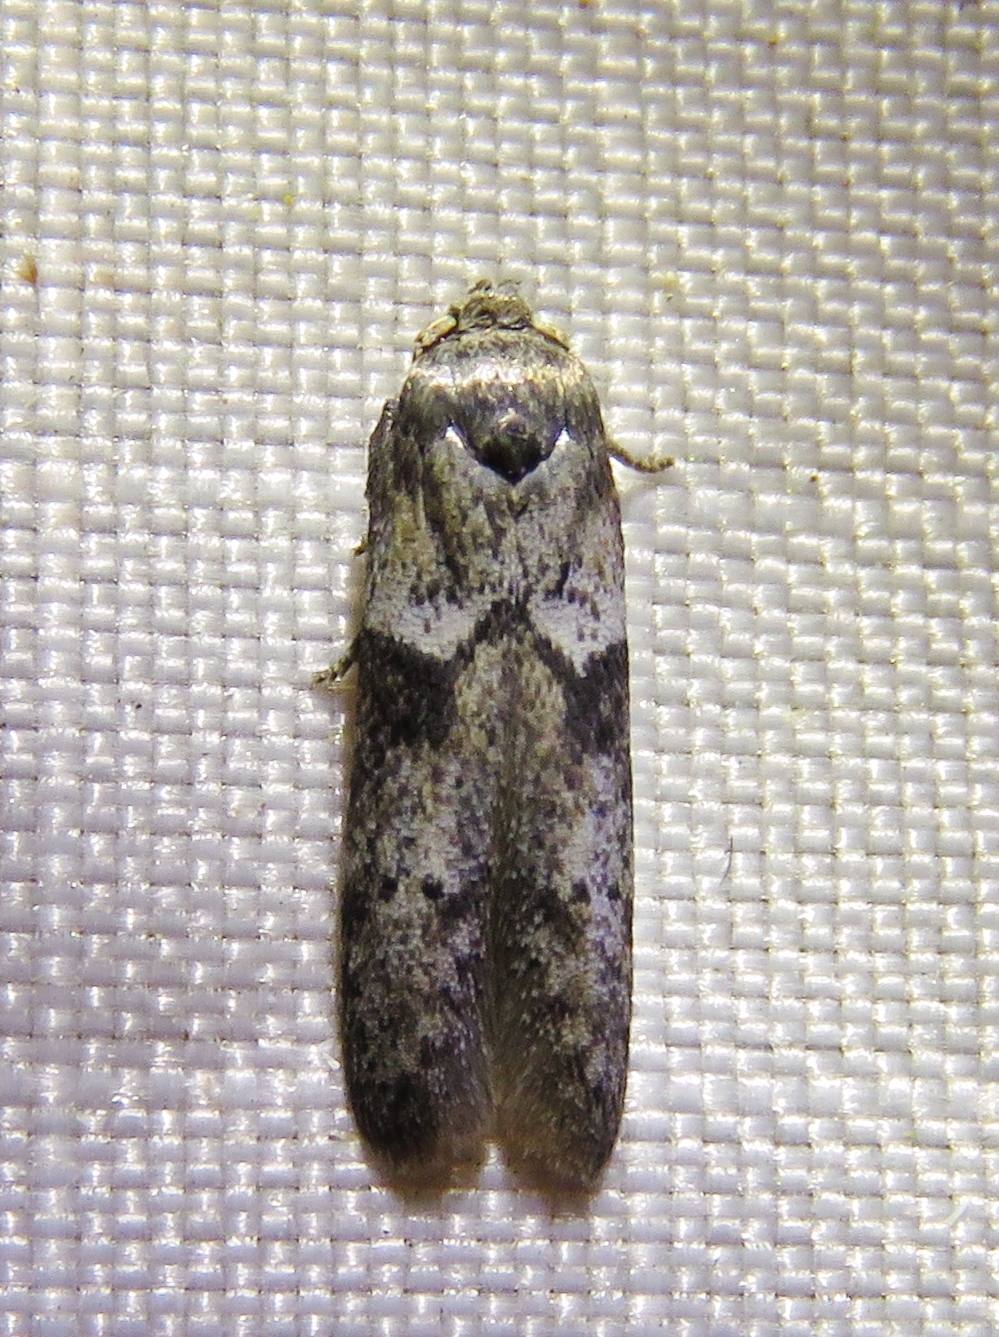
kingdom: Animalia
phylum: Arthropoda
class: Insecta
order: Lepidoptera
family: Blastobasidae
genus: Blastobasis
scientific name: Blastobasis glandulella
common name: Acorn moth
